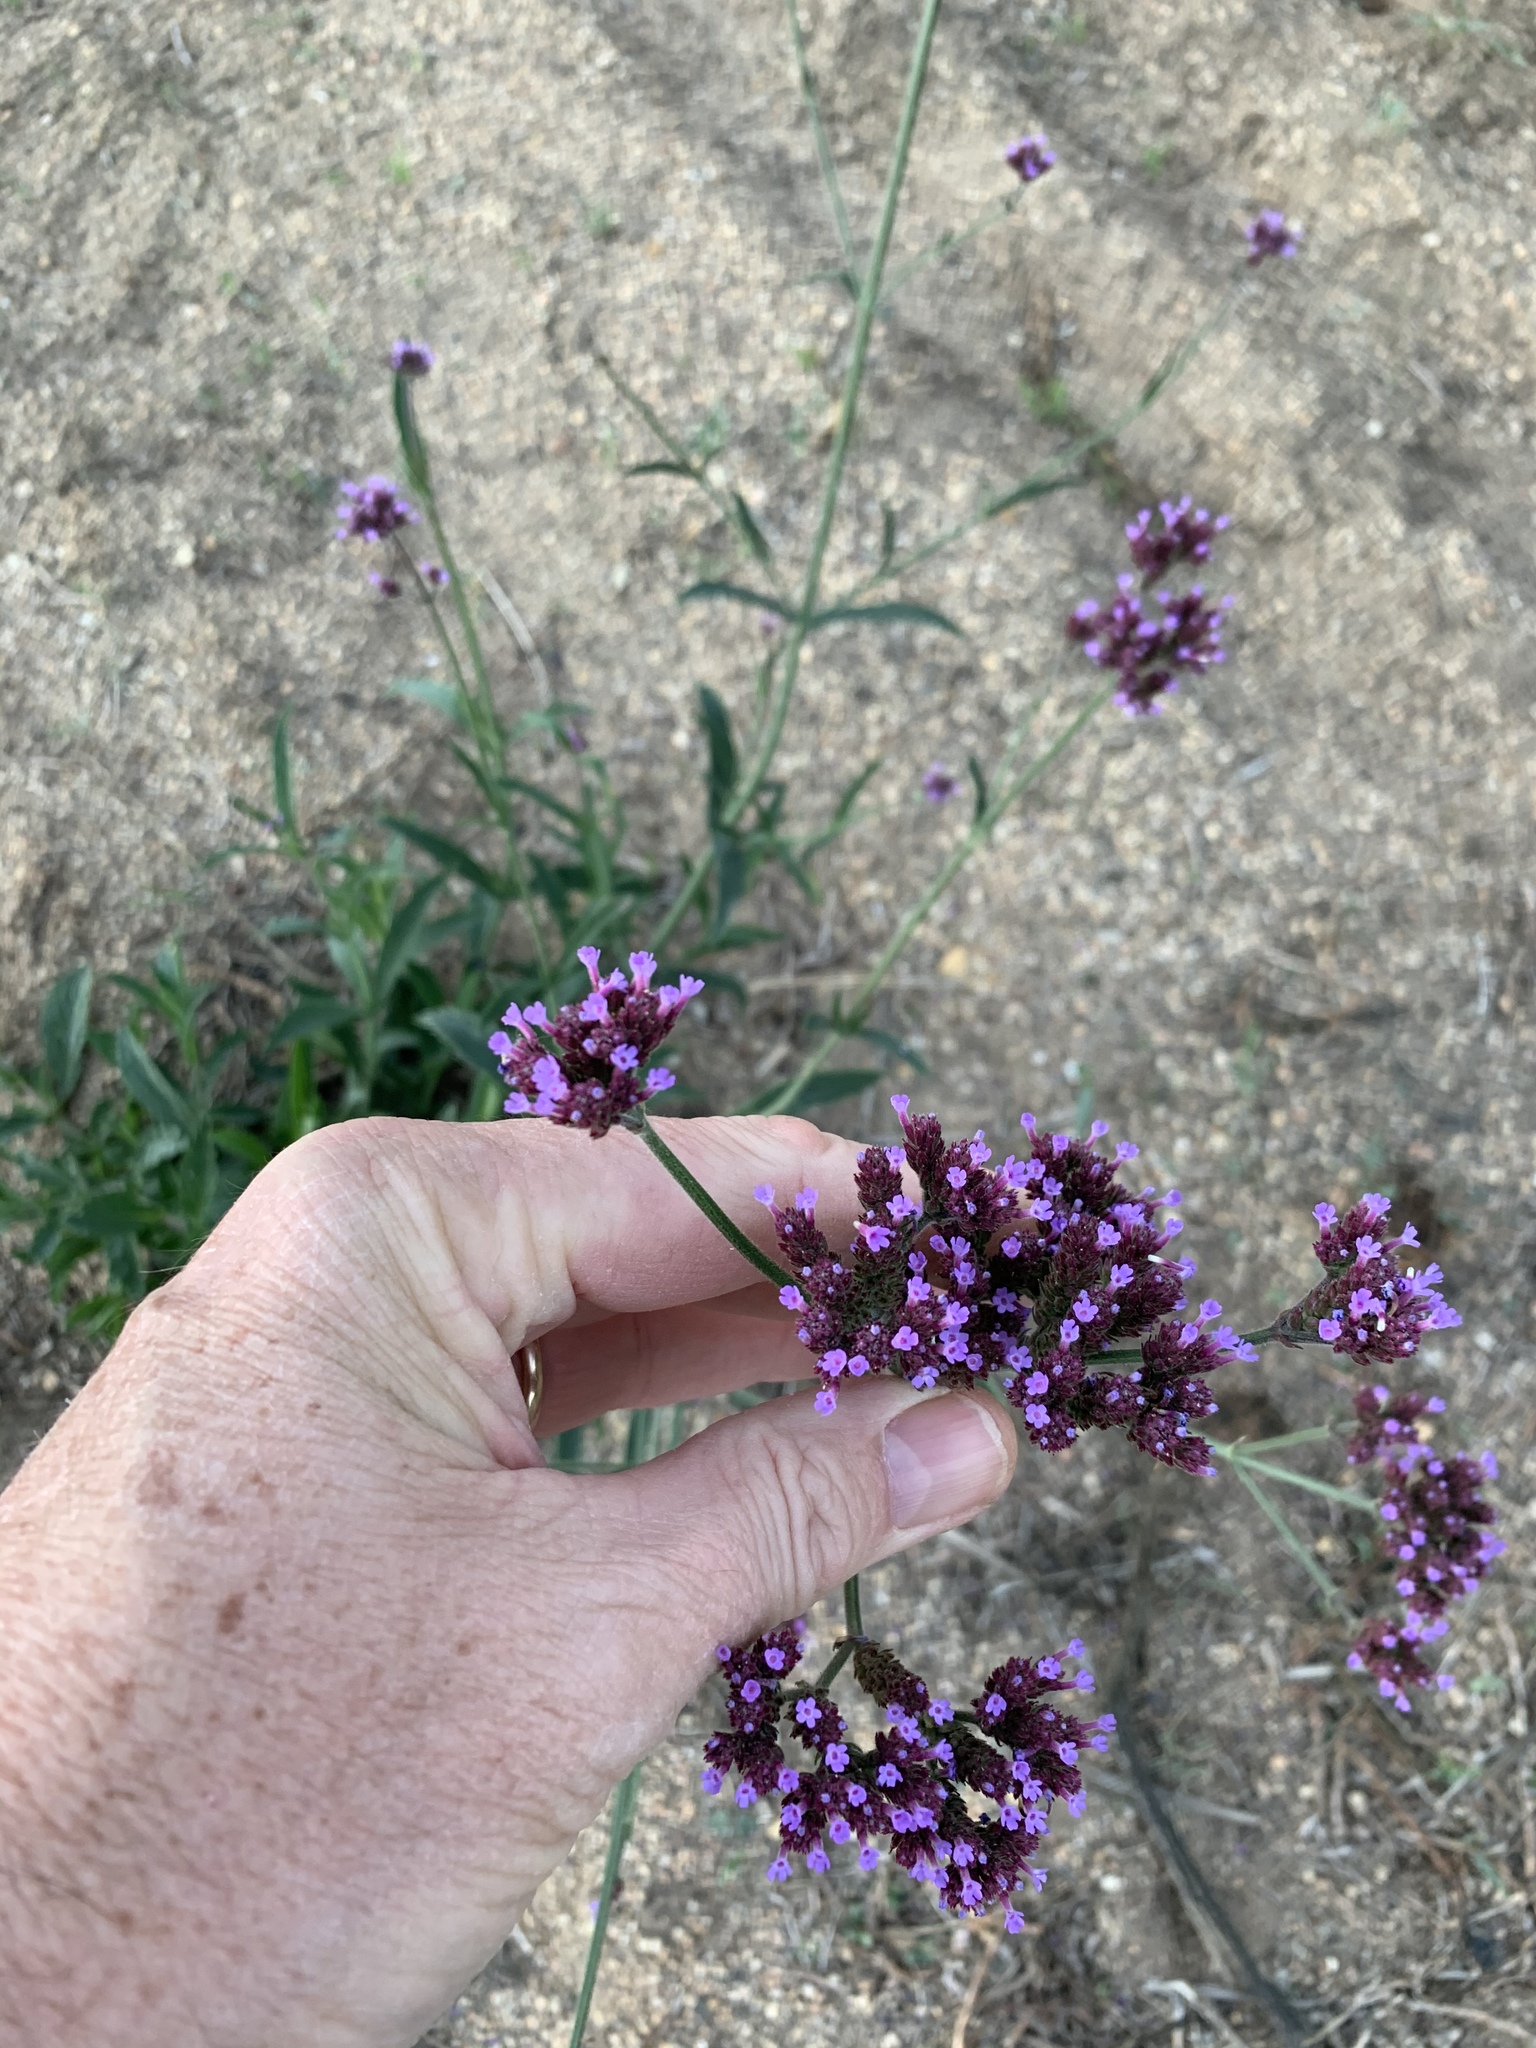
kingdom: Plantae
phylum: Tracheophyta
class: Magnoliopsida
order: Lamiales
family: Verbenaceae
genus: Verbena
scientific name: Verbena bonariensis
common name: Purpletop vervain
